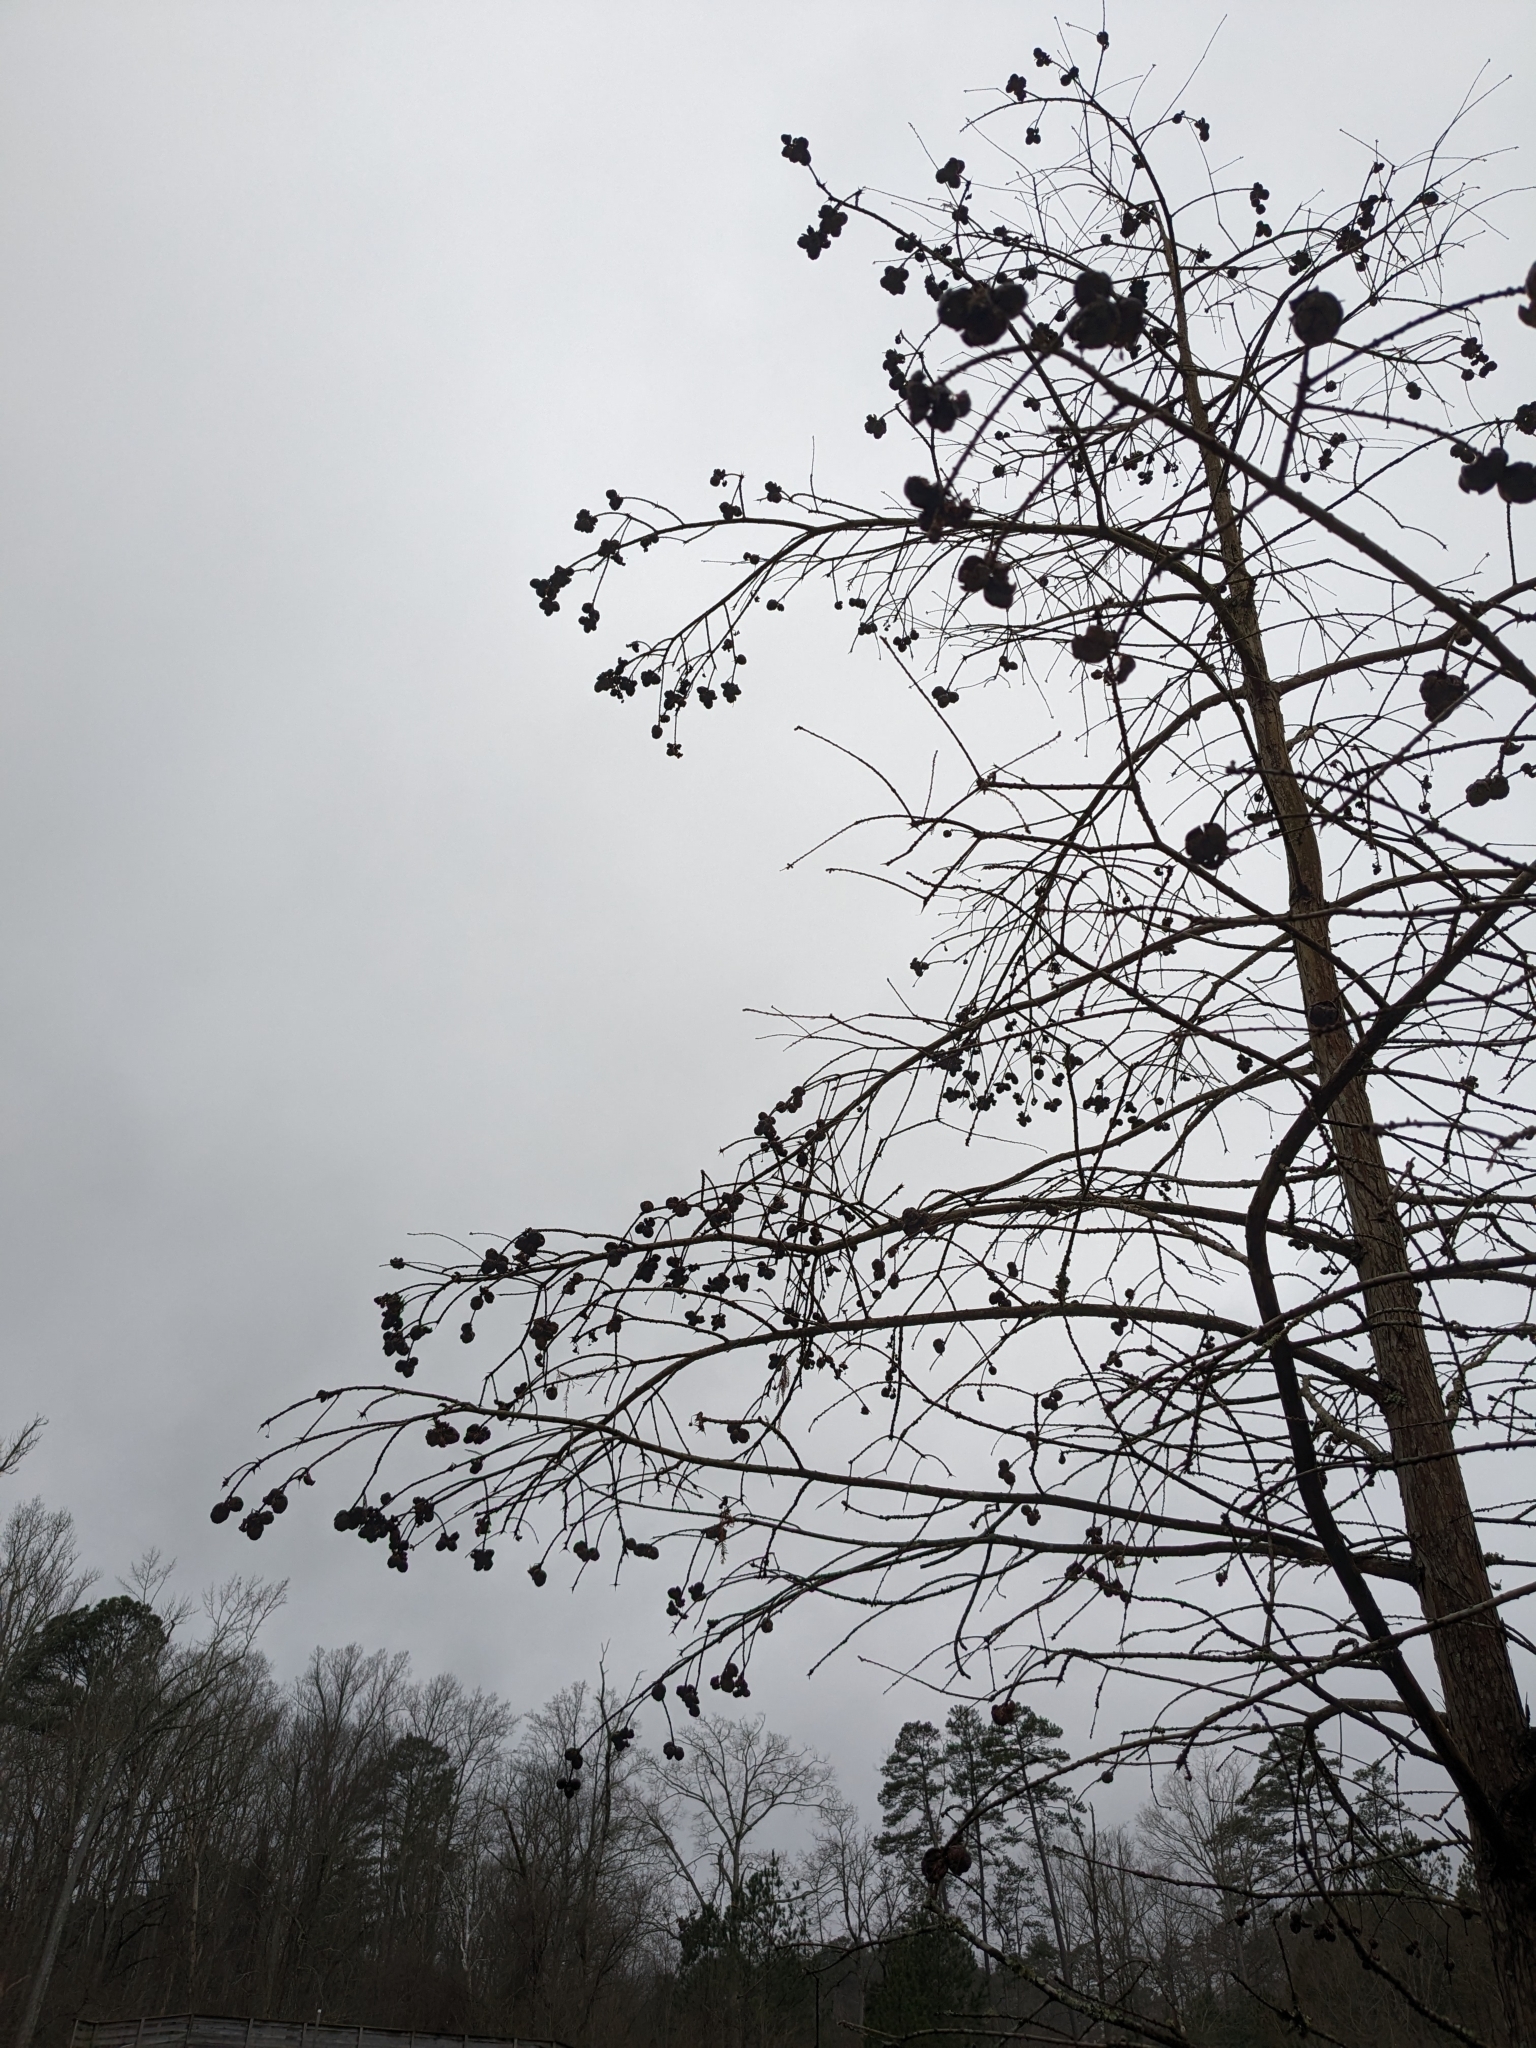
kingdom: Plantae
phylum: Tracheophyta
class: Pinopsida
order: Pinales
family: Cupressaceae
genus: Taxodium
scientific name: Taxodium distichum
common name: Bald cypress
